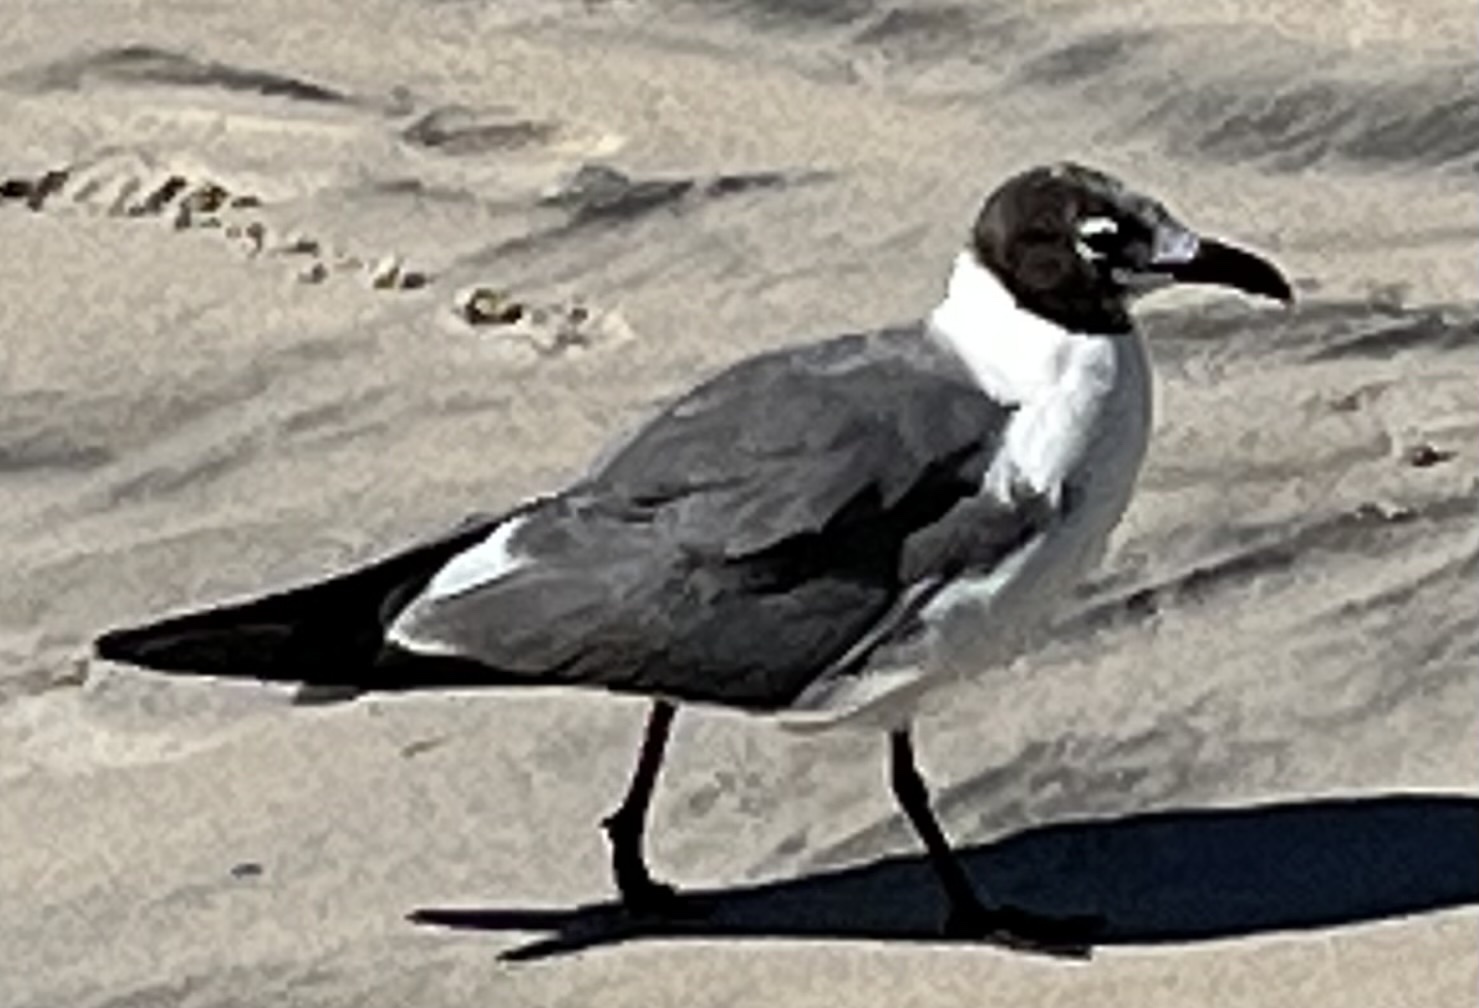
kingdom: Animalia
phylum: Chordata
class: Aves
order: Charadriiformes
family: Laridae
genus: Leucophaeus
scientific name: Leucophaeus atricilla
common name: Laughing gull
